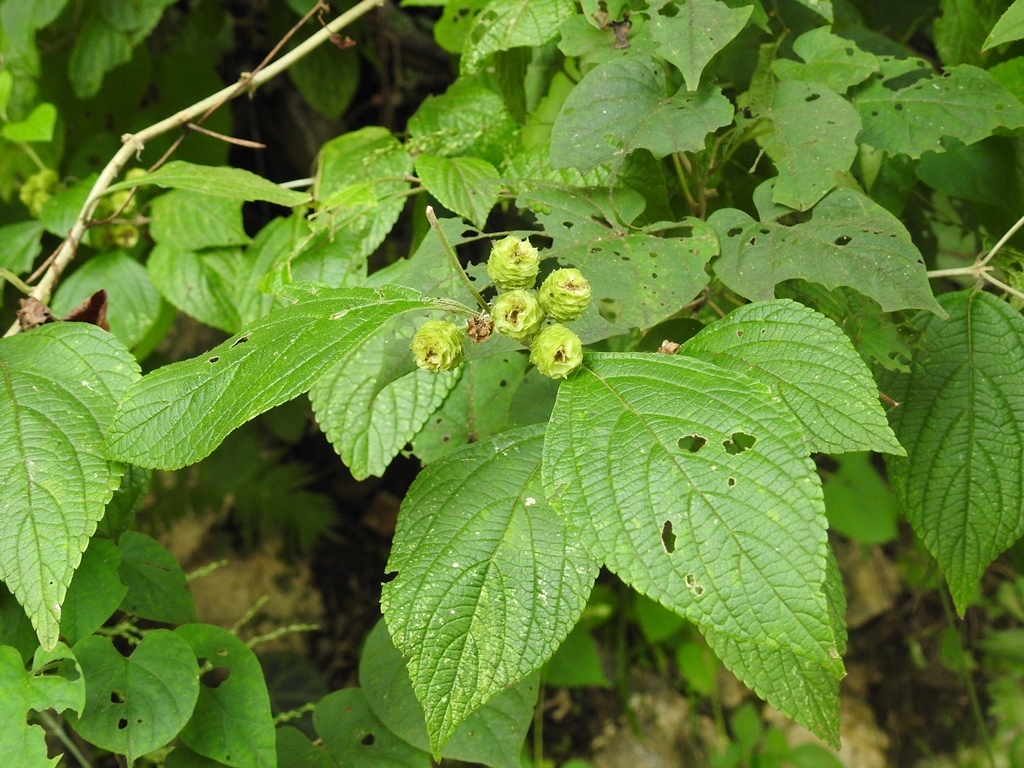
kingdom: Plantae
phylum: Tracheophyta
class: Magnoliopsida
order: Lamiales
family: Verbenaceae
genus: Lippia
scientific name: Lippia umbellata
